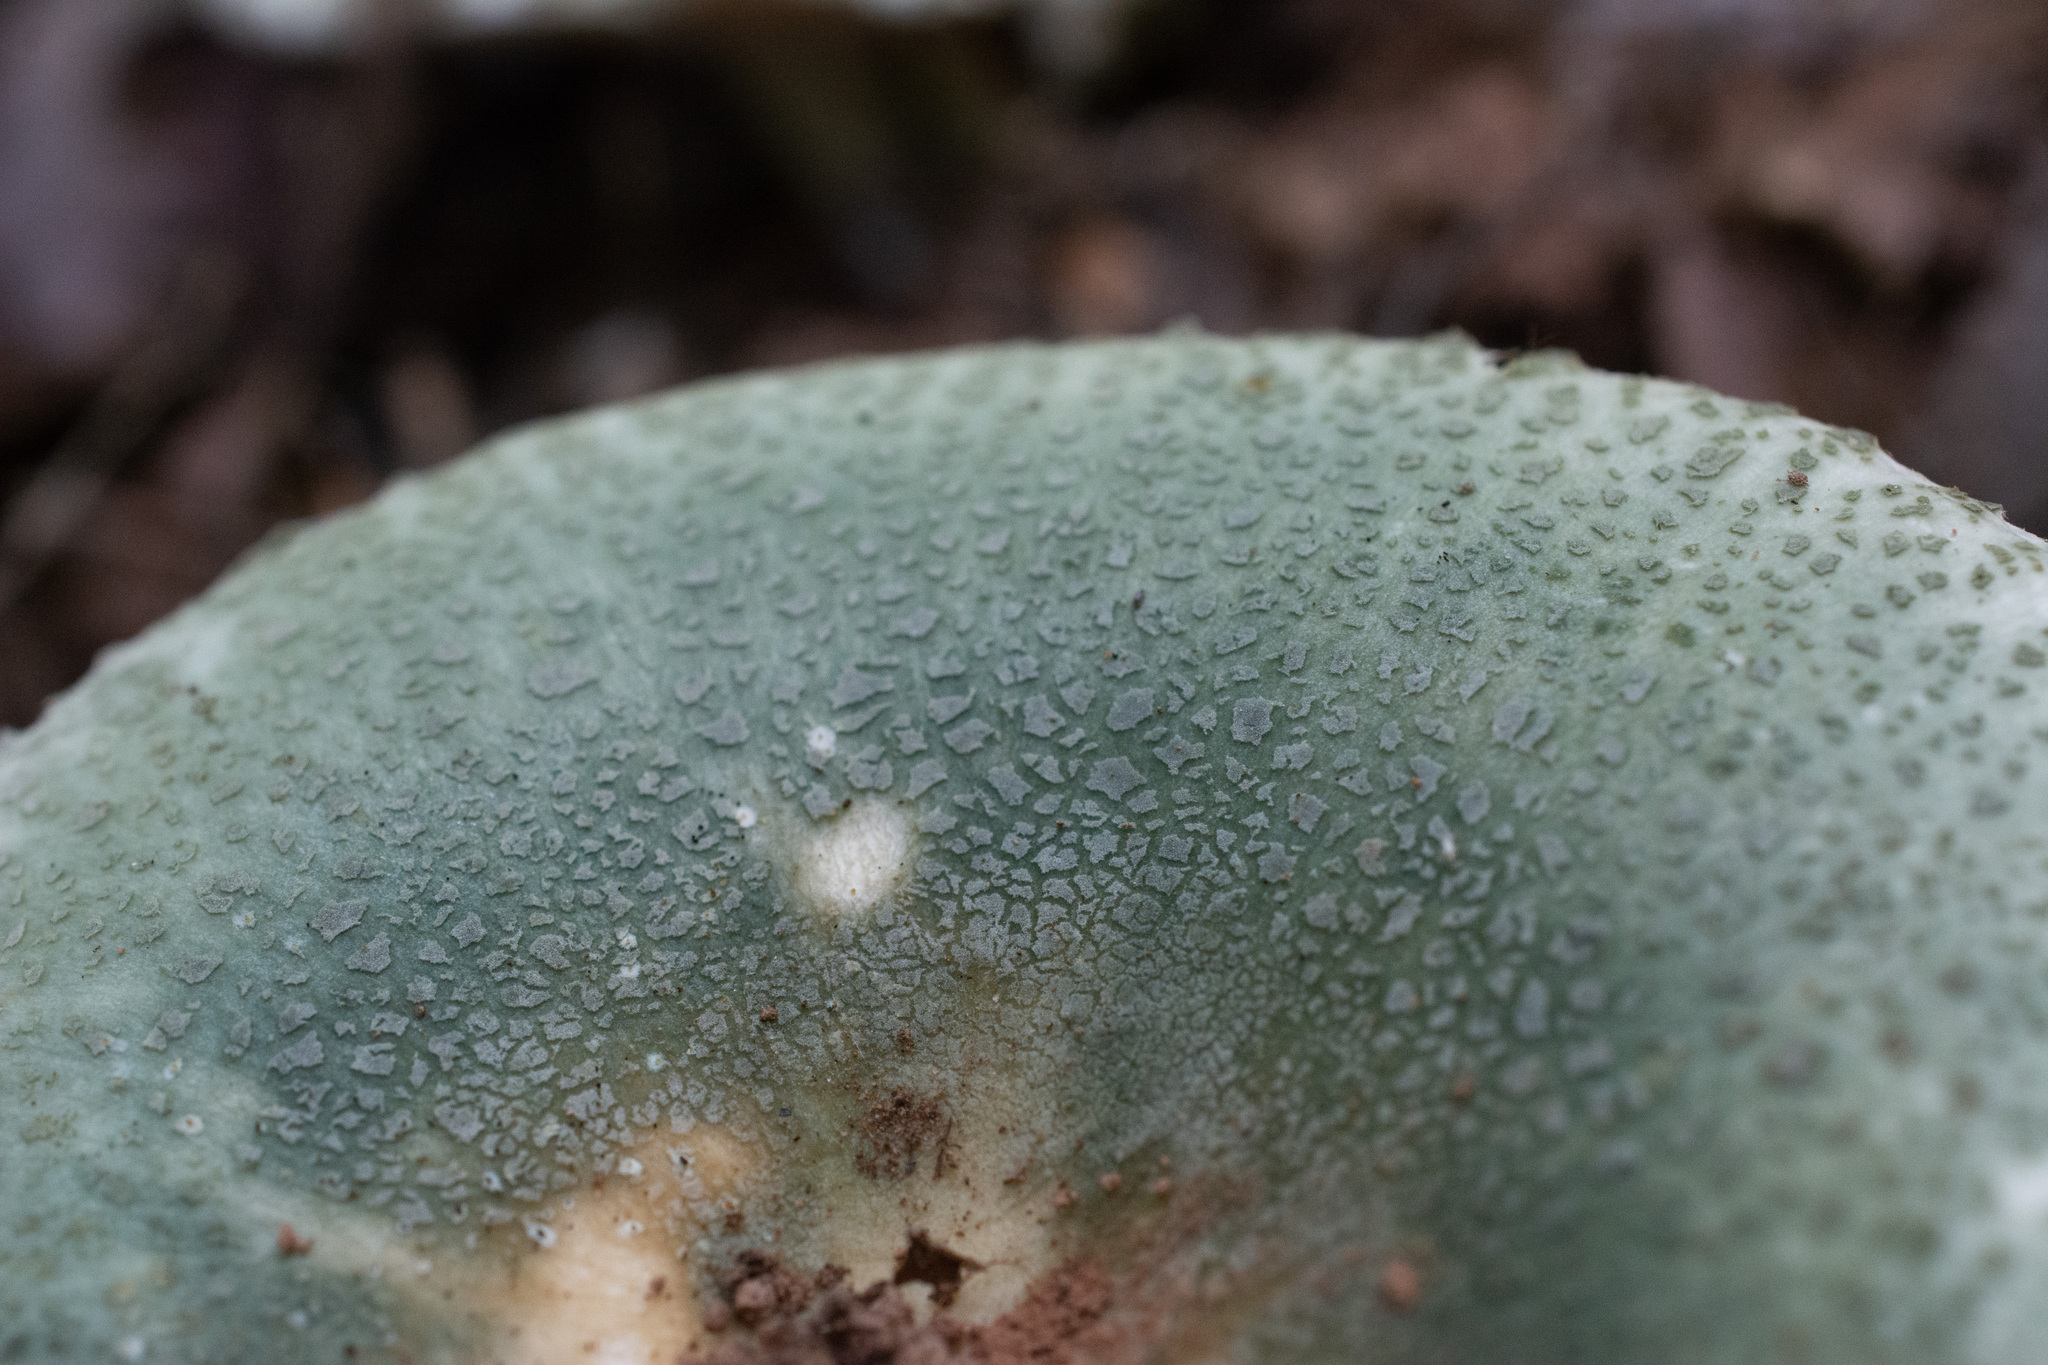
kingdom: Fungi
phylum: Basidiomycota
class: Agaricomycetes
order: Russulales
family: Russulaceae
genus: Russula
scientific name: Russula virescens
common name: Greencracked brittlegill
